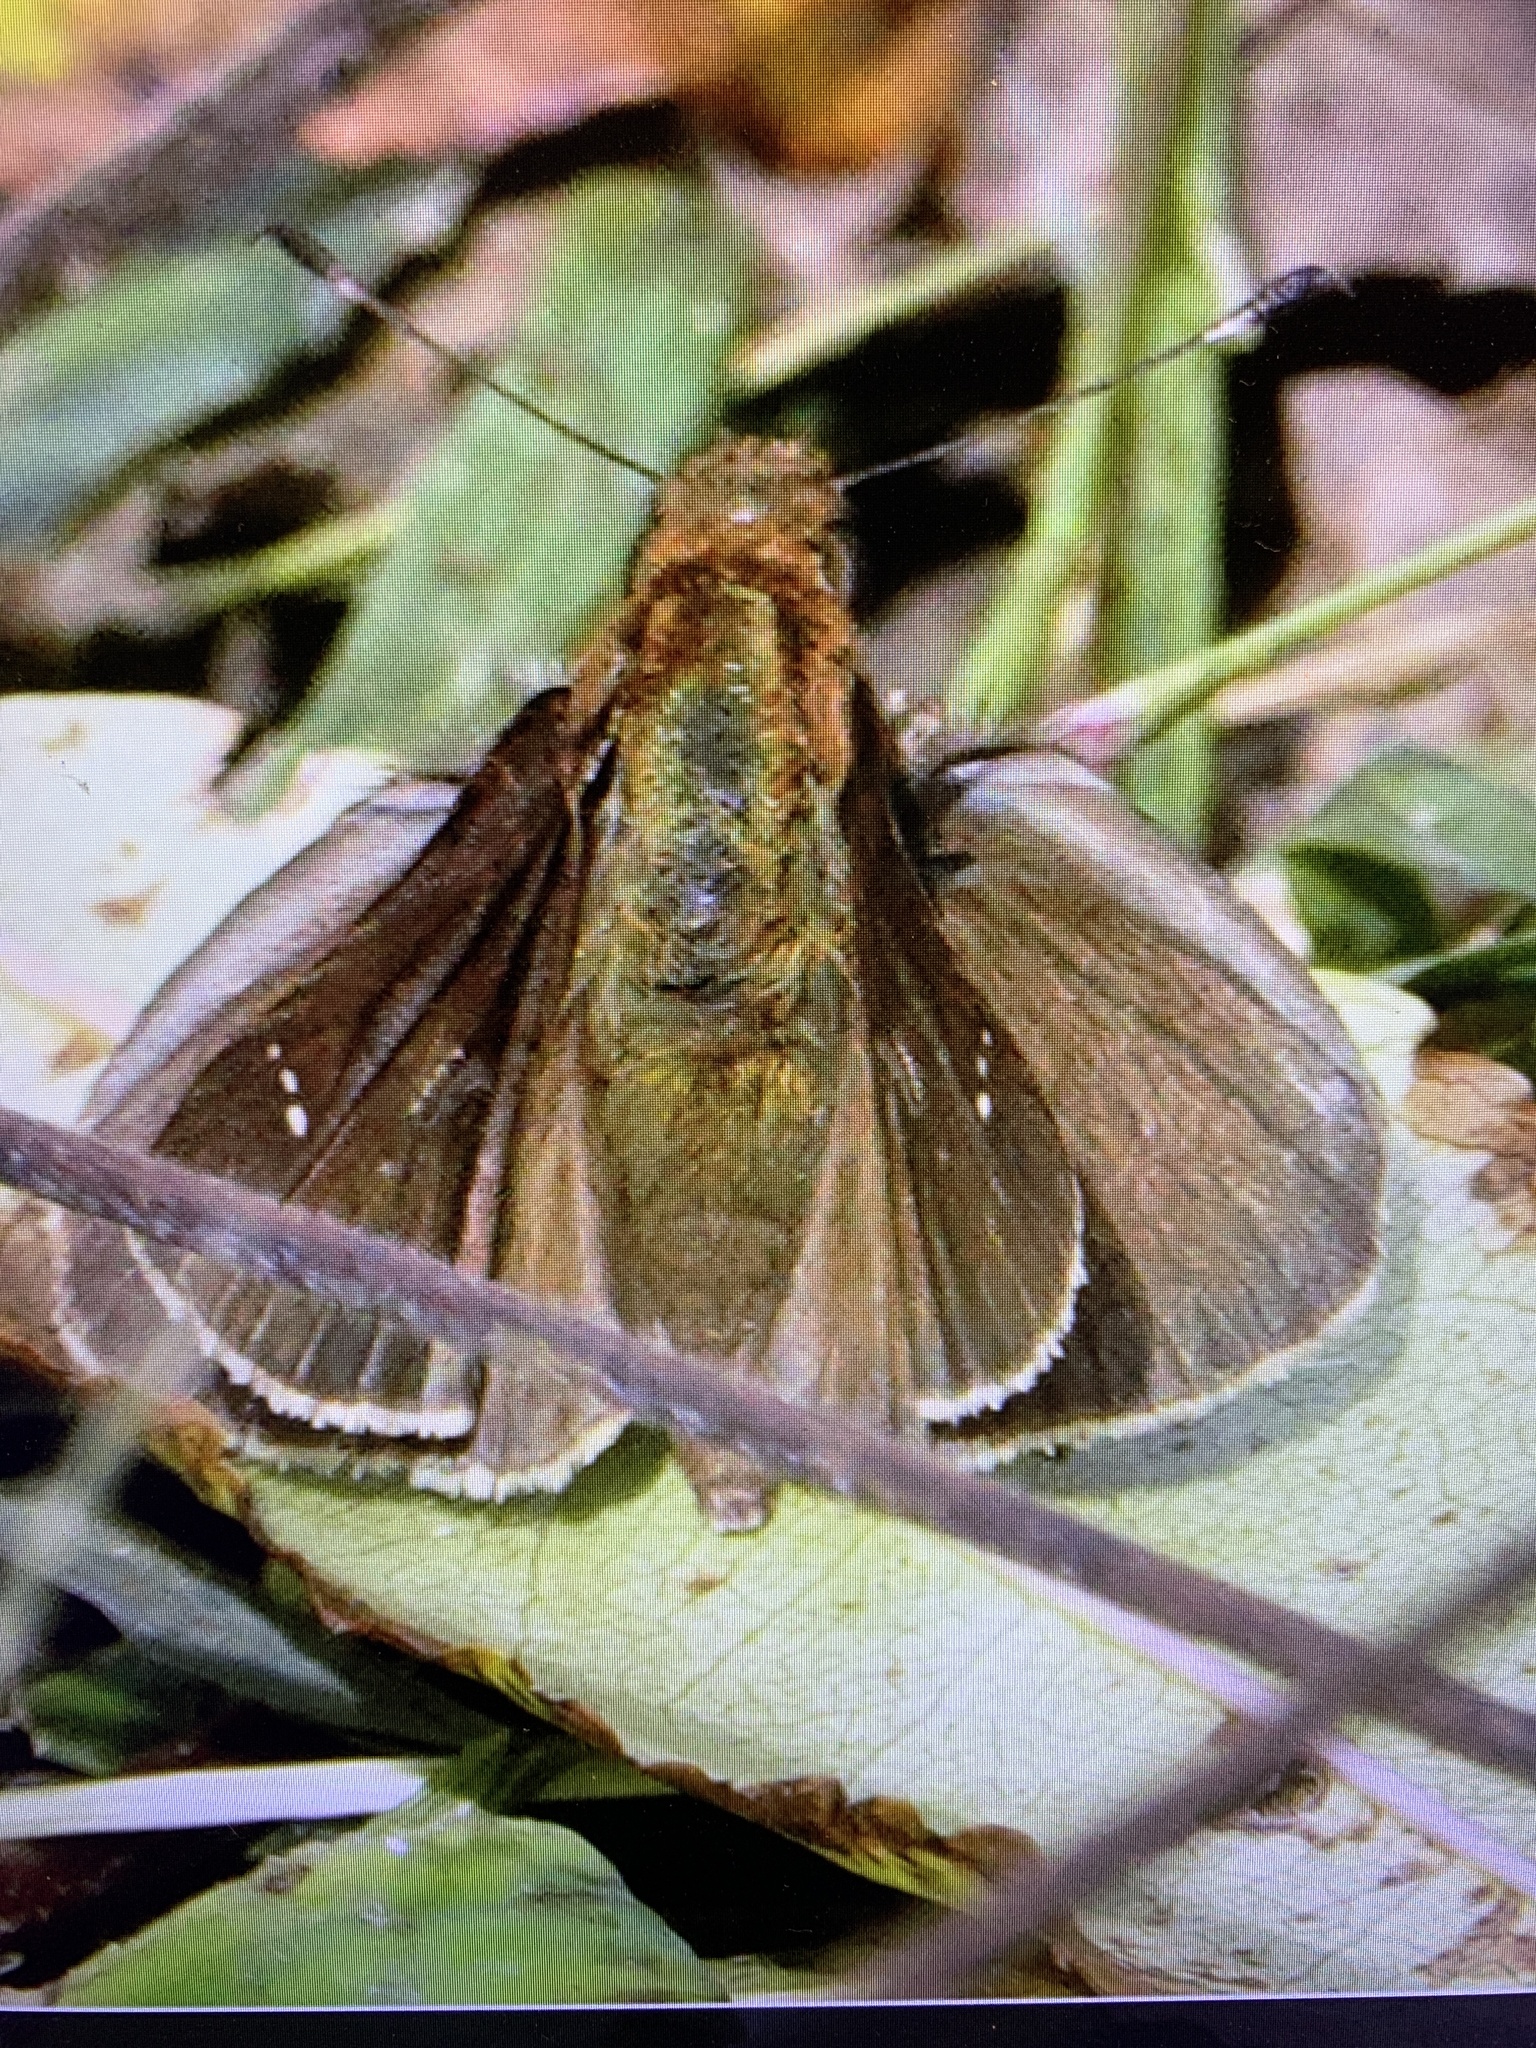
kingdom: Animalia
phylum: Arthropoda
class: Insecta
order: Lepidoptera
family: Hesperiidae
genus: Lerema
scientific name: Lerema accius
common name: Clouded skipper
